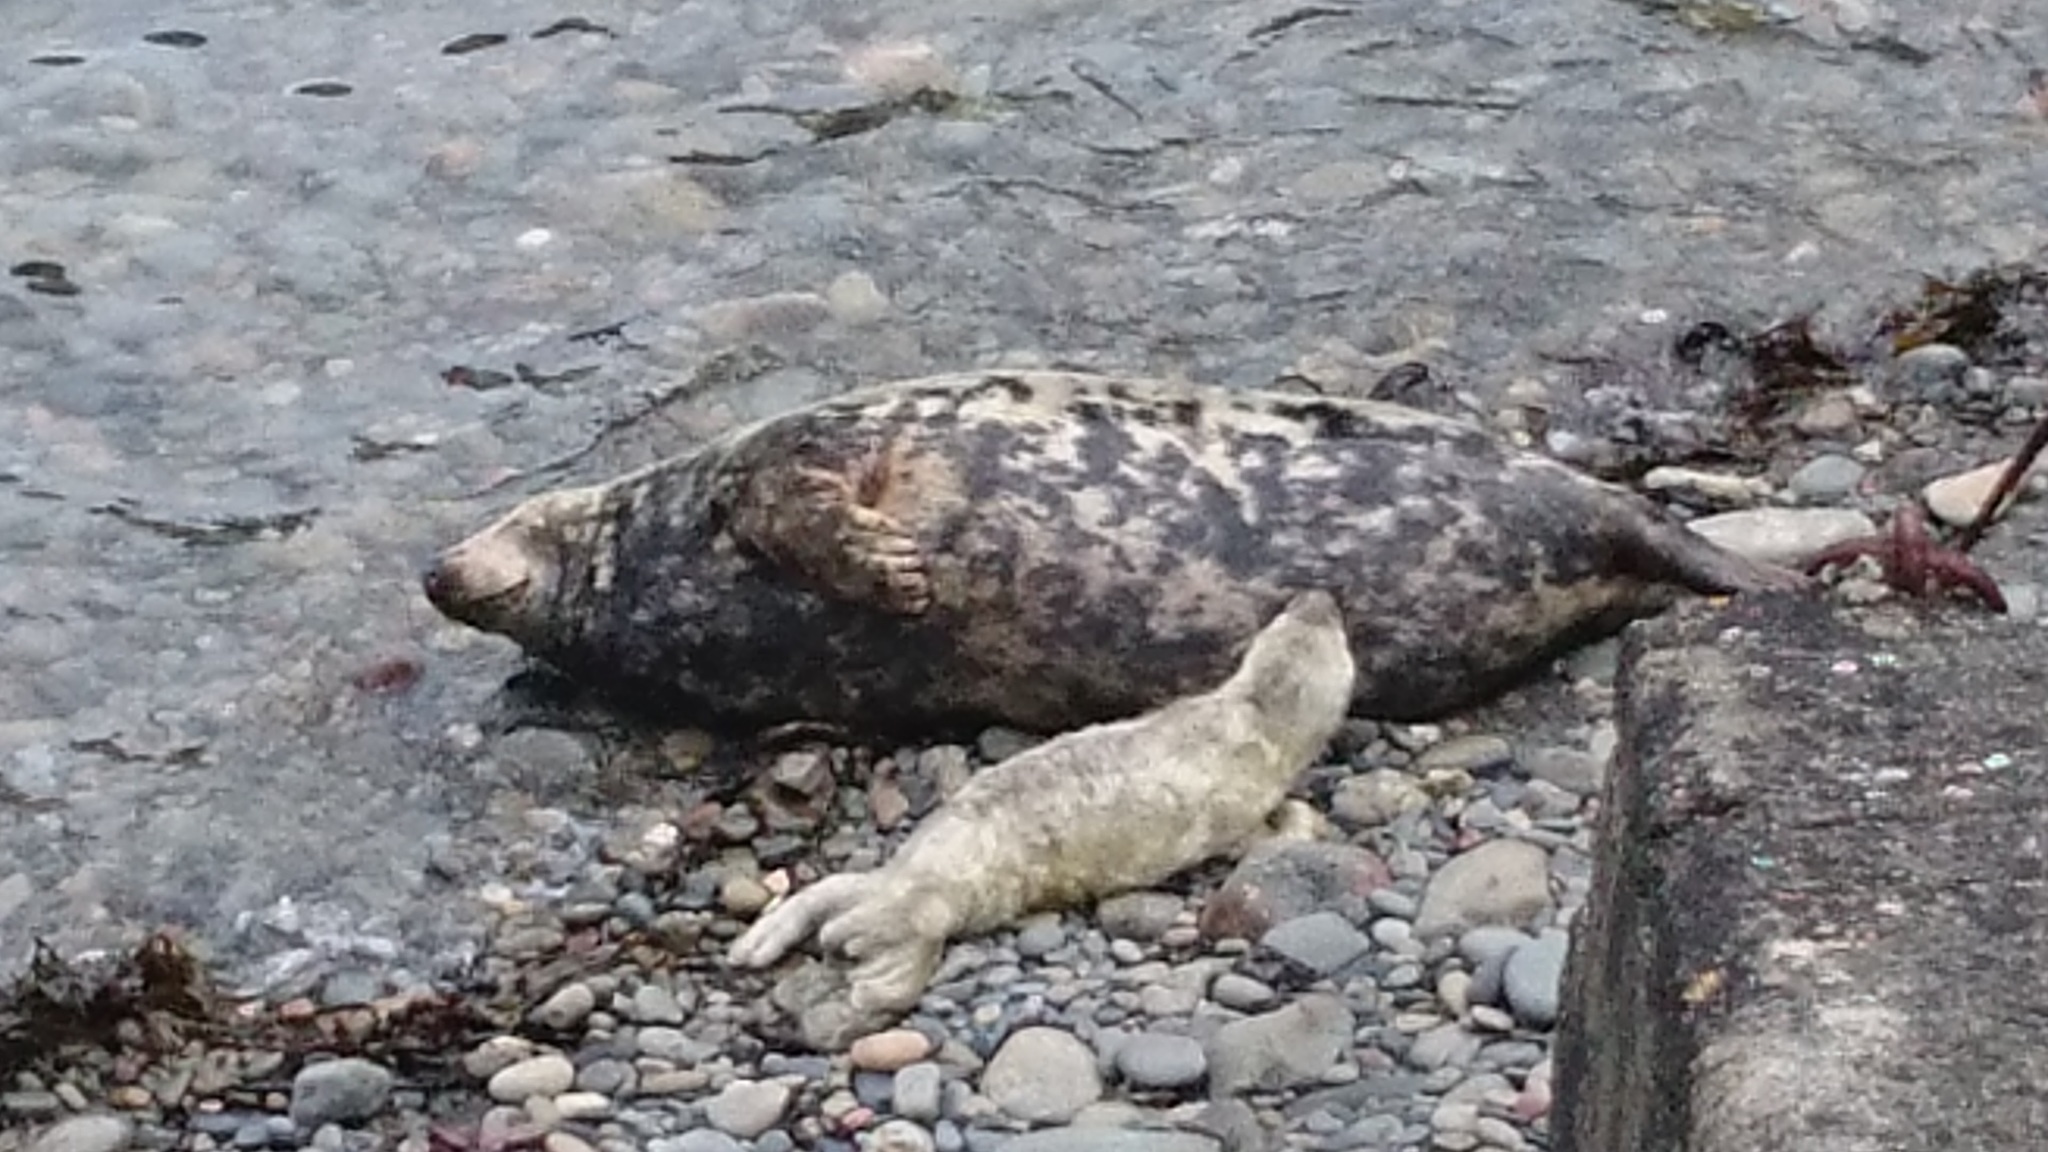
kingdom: Animalia
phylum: Chordata
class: Mammalia
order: Carnivora
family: Phocidae
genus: Halichoerus
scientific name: Halichoerus grypus
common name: Grey seal
